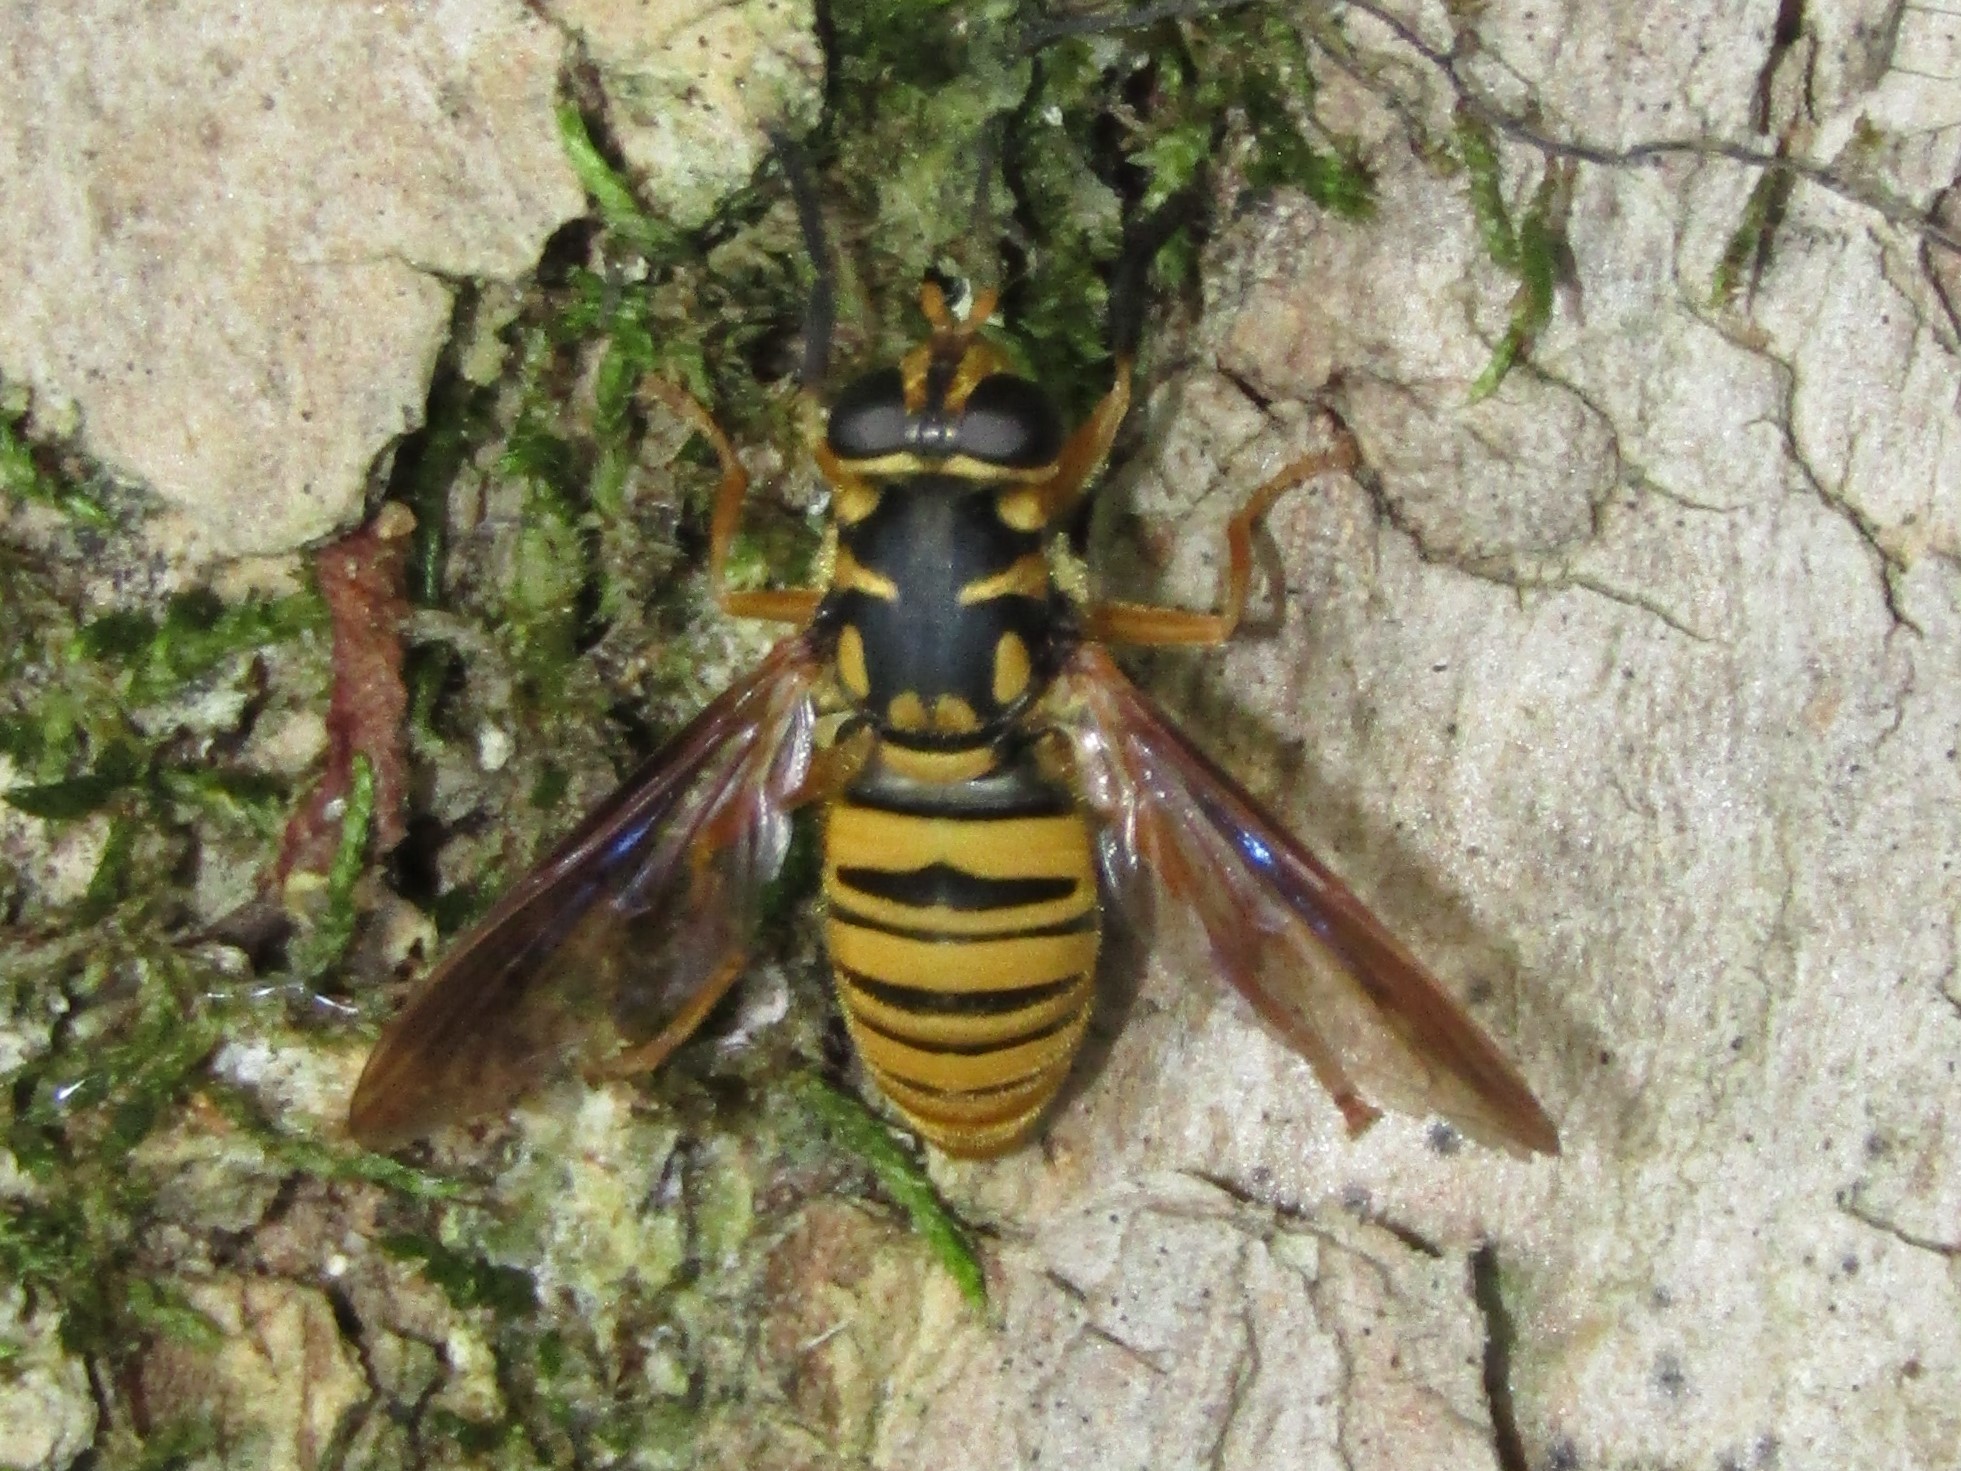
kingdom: Animalia
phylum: Arthropoda
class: Insecta
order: Diptera
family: Syrphidae
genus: Temnostoma
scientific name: Temnostoma daochum
